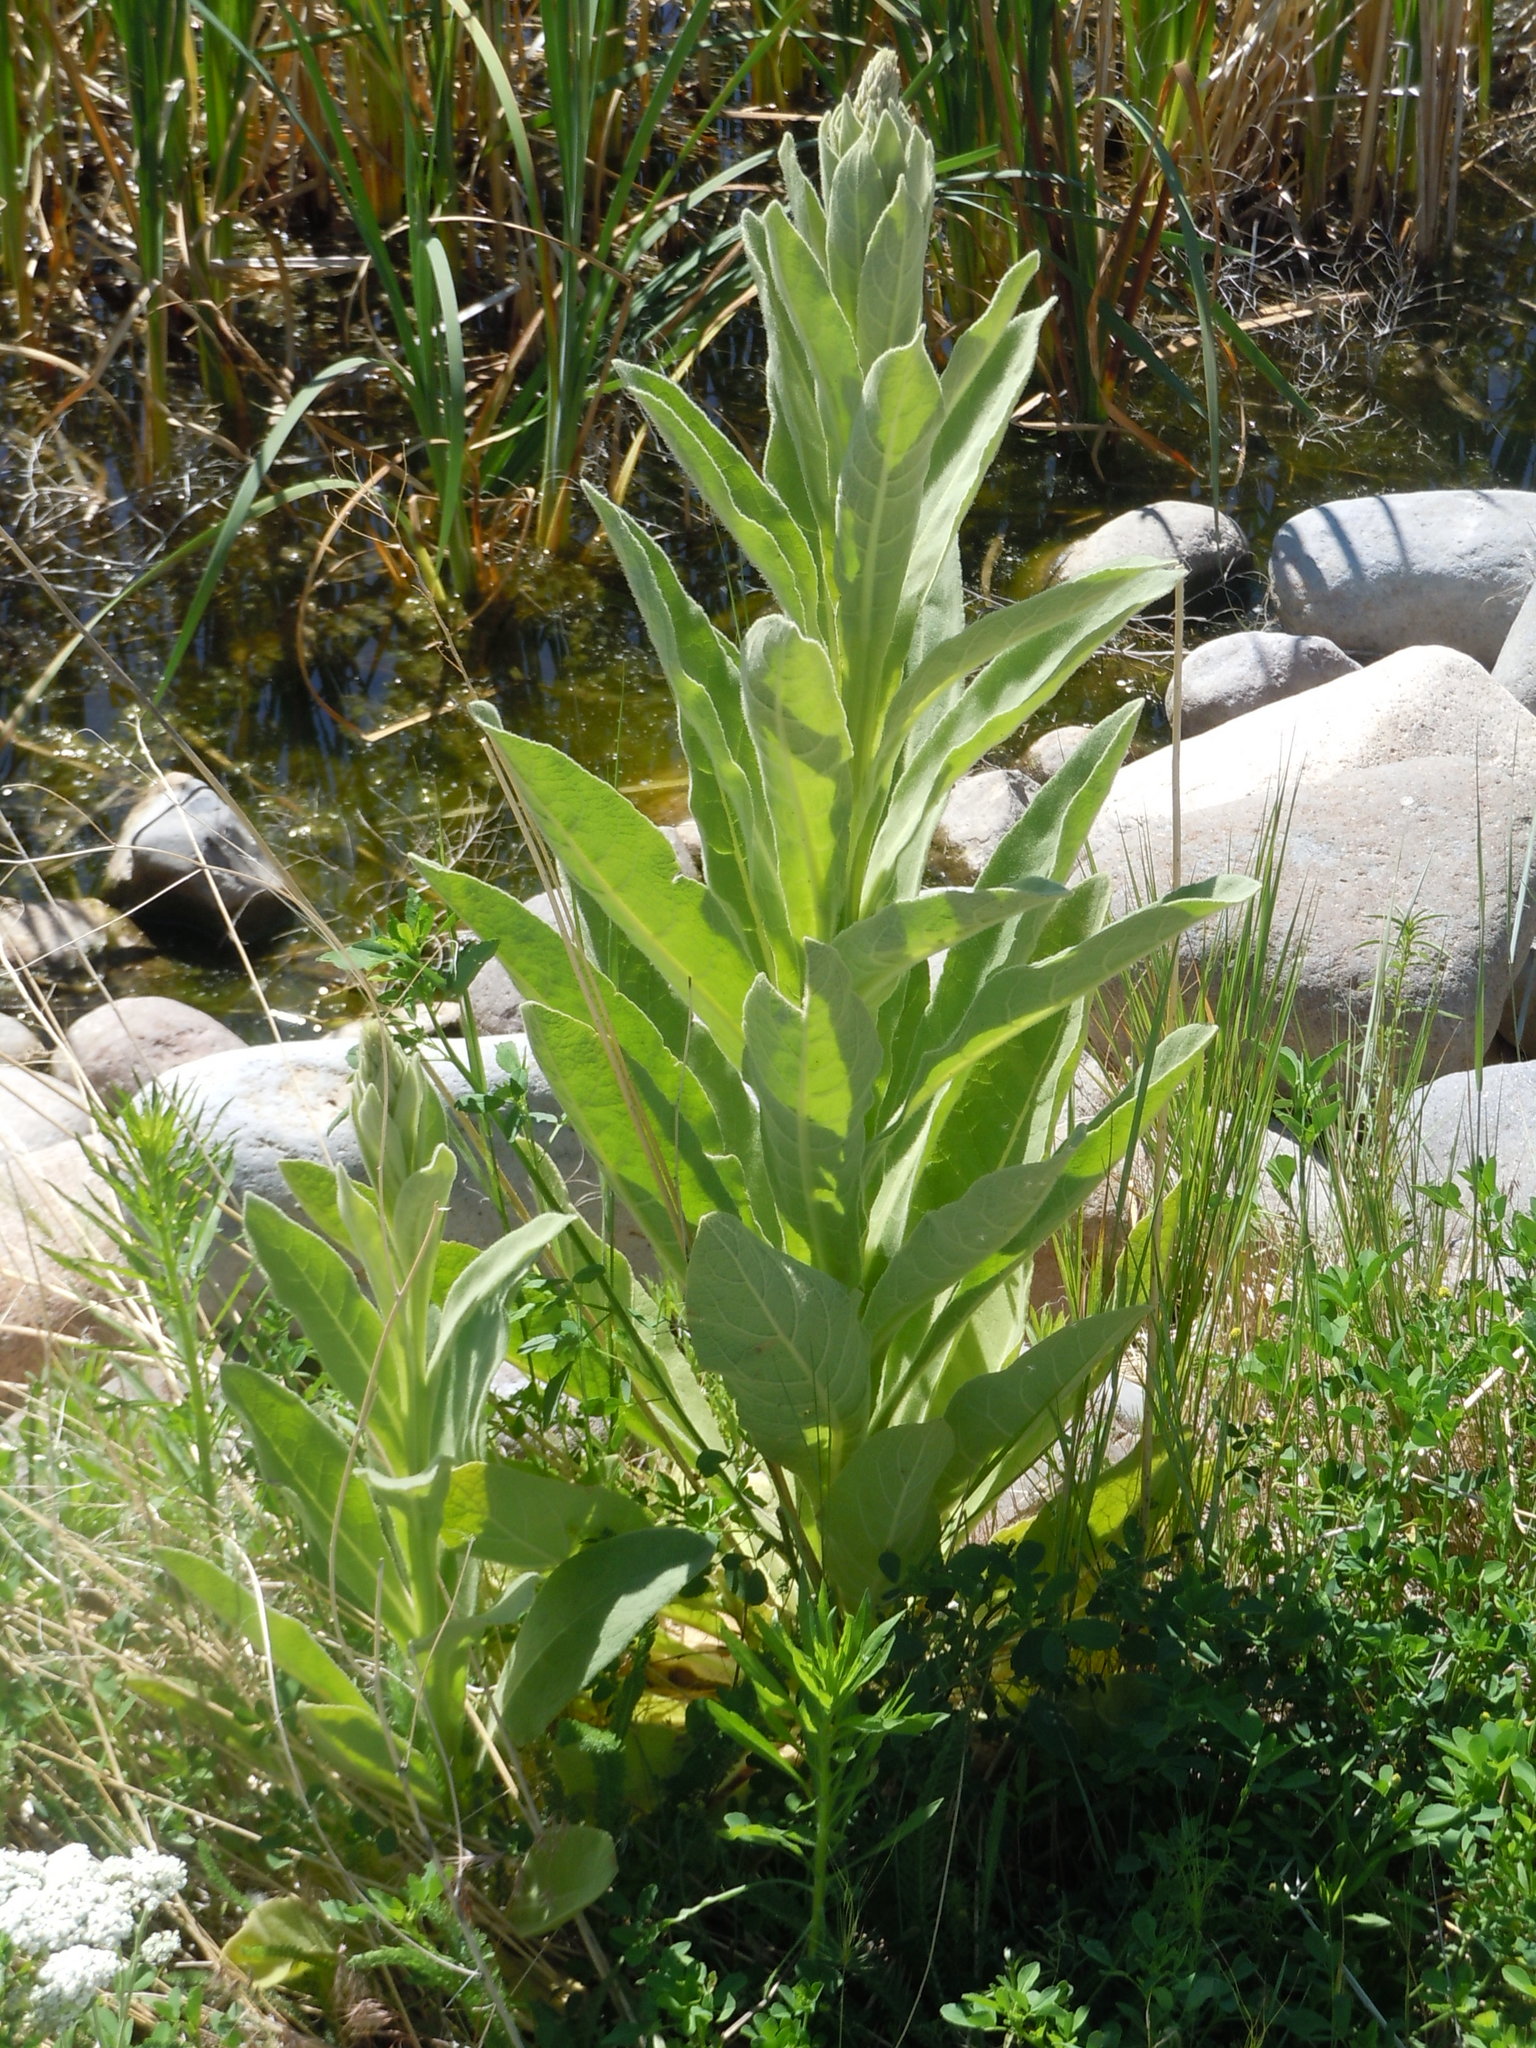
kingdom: Plantae
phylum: Tracheophyta
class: Magnoliopsida
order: Lamiales
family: Scrophulariaceae
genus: Verbascum
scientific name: Verbascum thapsus
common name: Common mullein
